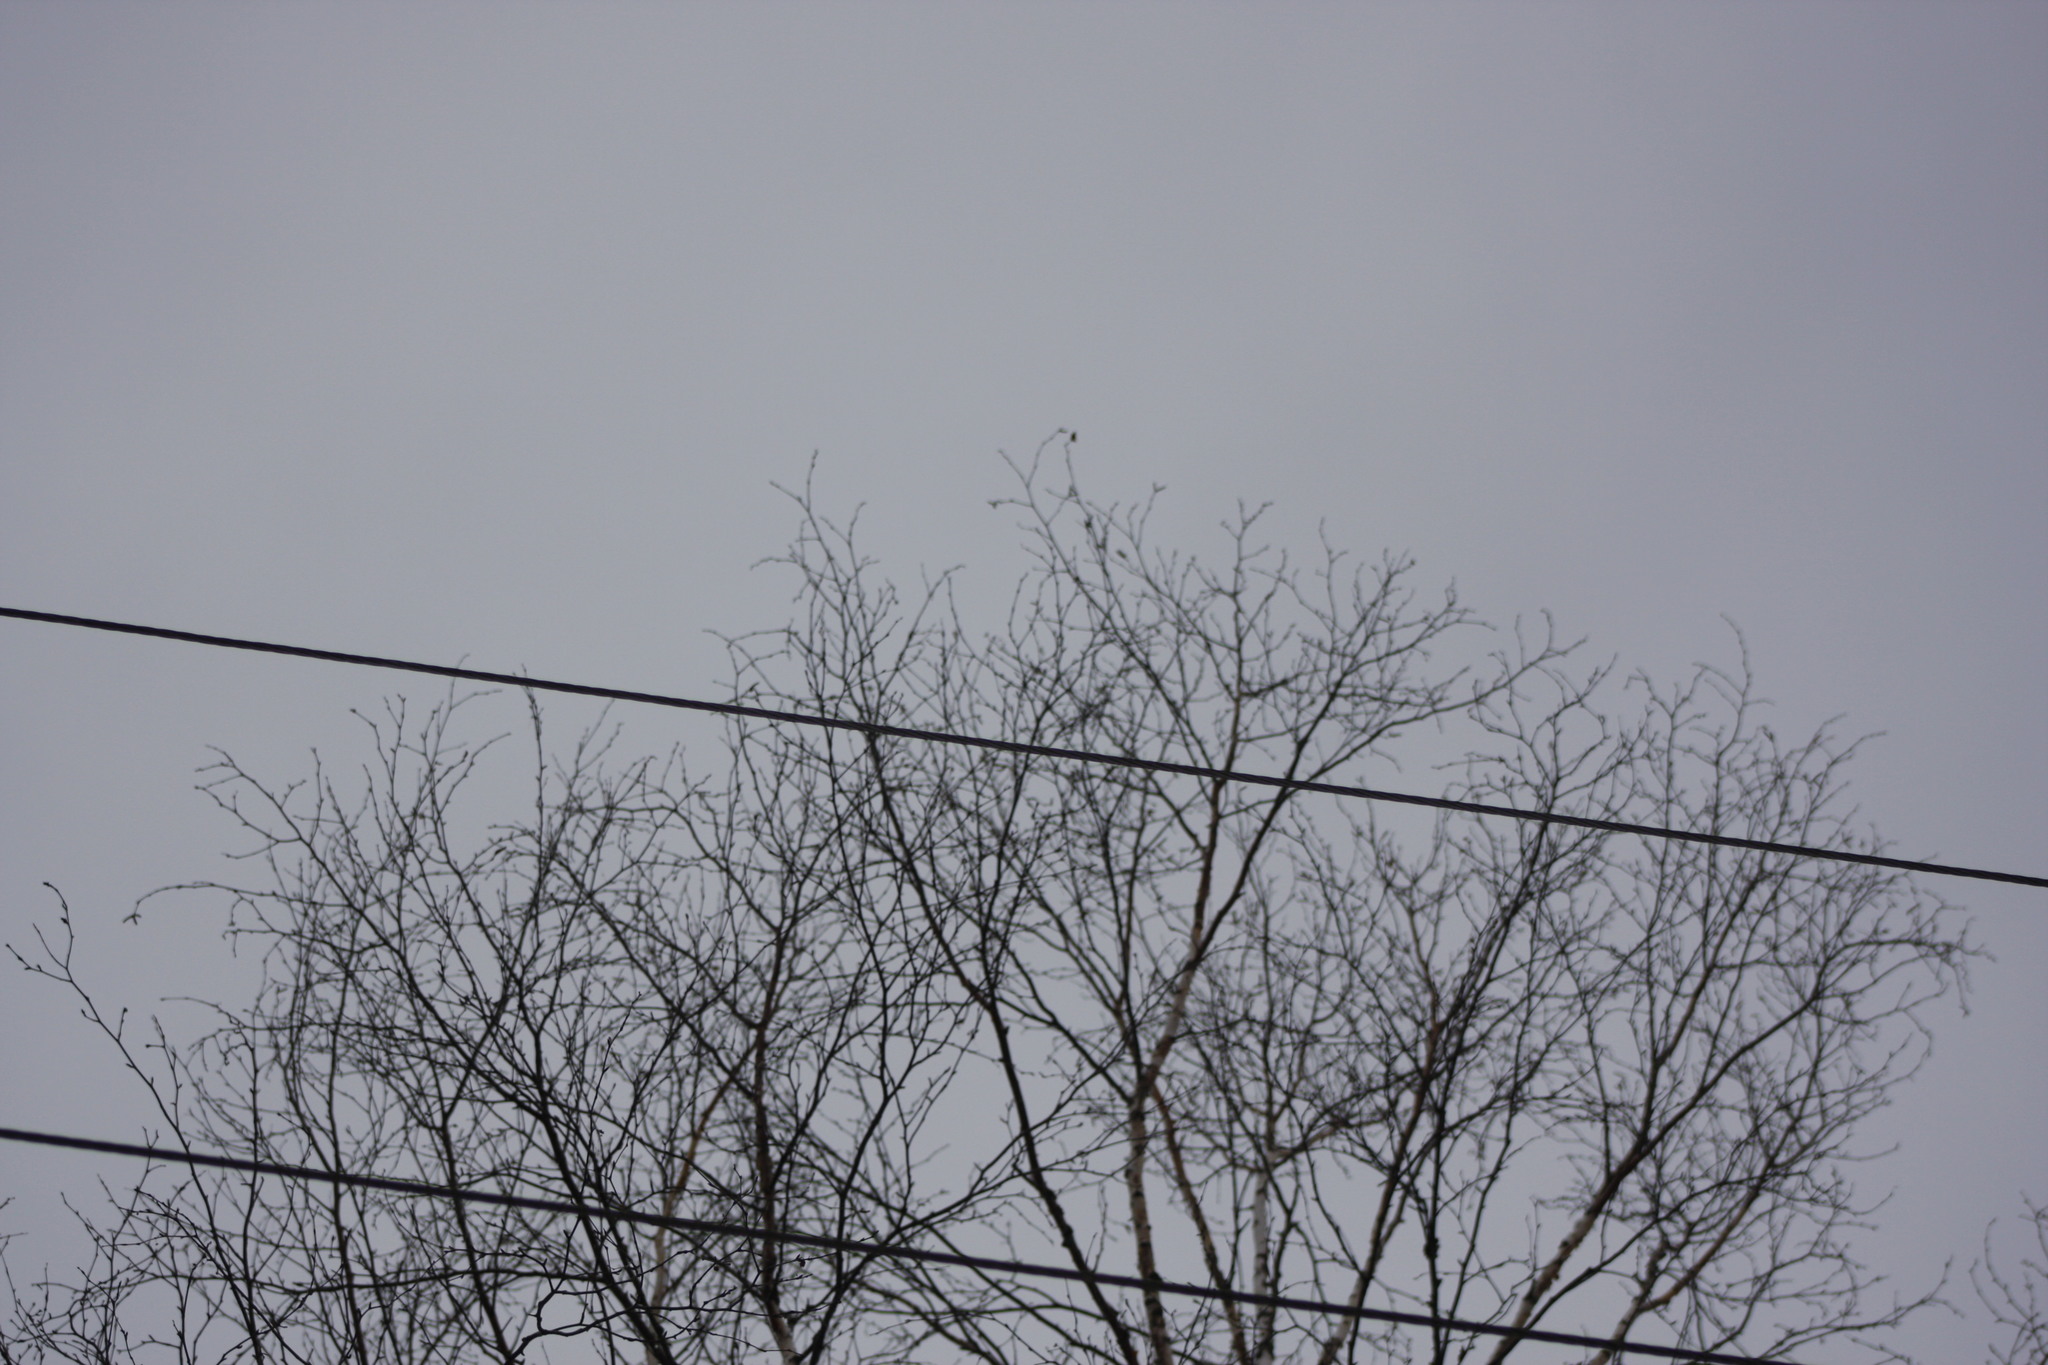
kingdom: Plantae
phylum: Tracheophyta
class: Magnoliopsida
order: Fagales
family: Betulaceae
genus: Betula
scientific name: Betula papyrifera
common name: Paper birch
